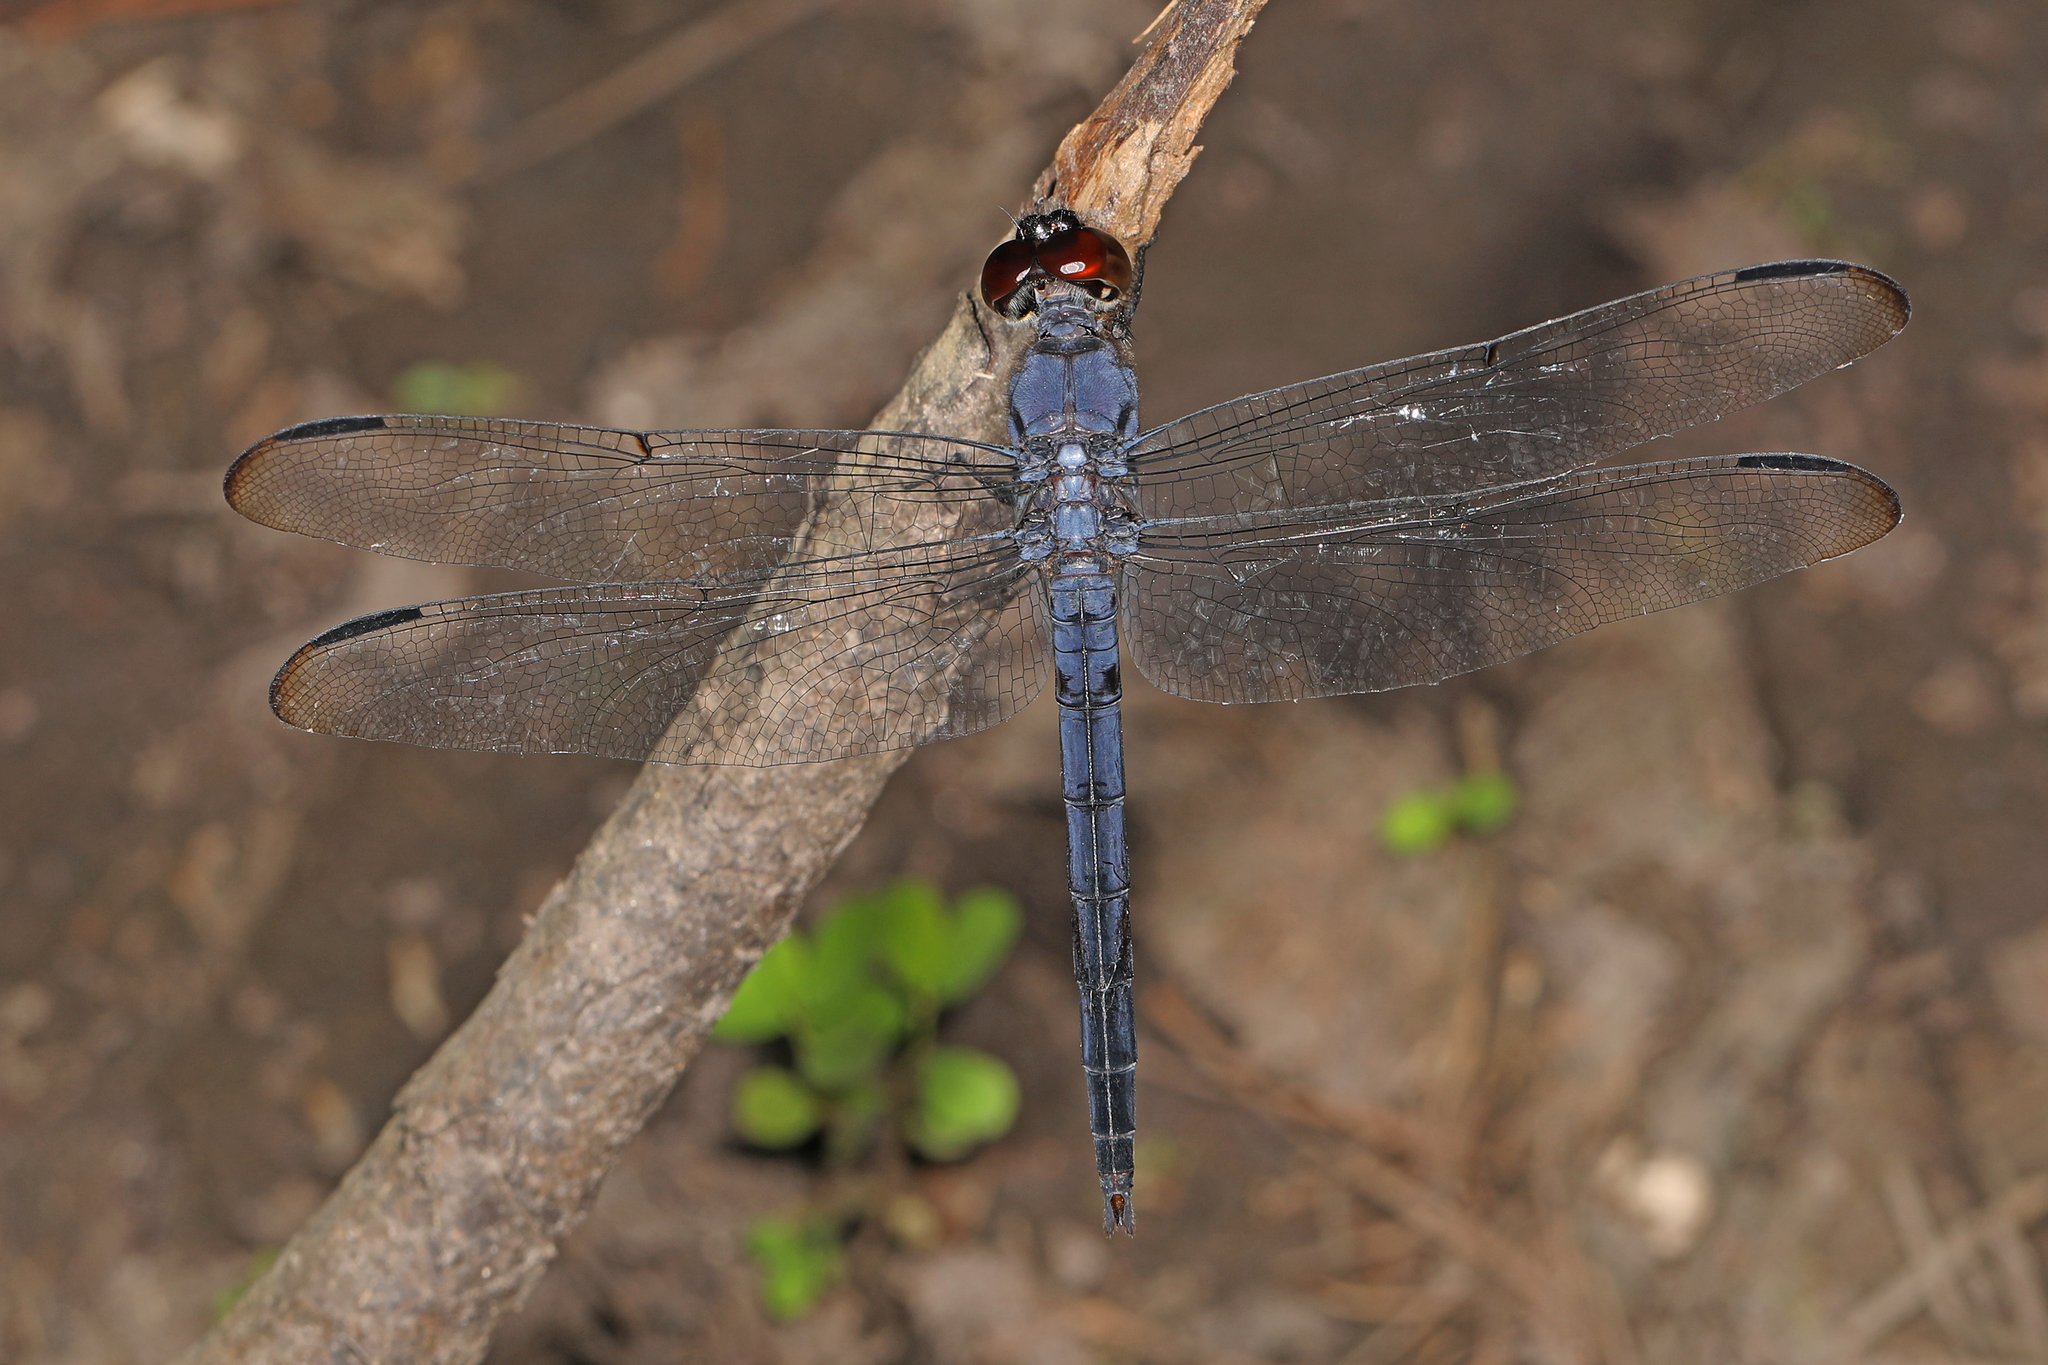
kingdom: Animalia
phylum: Arthropoda
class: Insecta
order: Odonata
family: Libellulidae
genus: Libellula
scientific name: Libellula incesta
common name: Slaty skimmer
